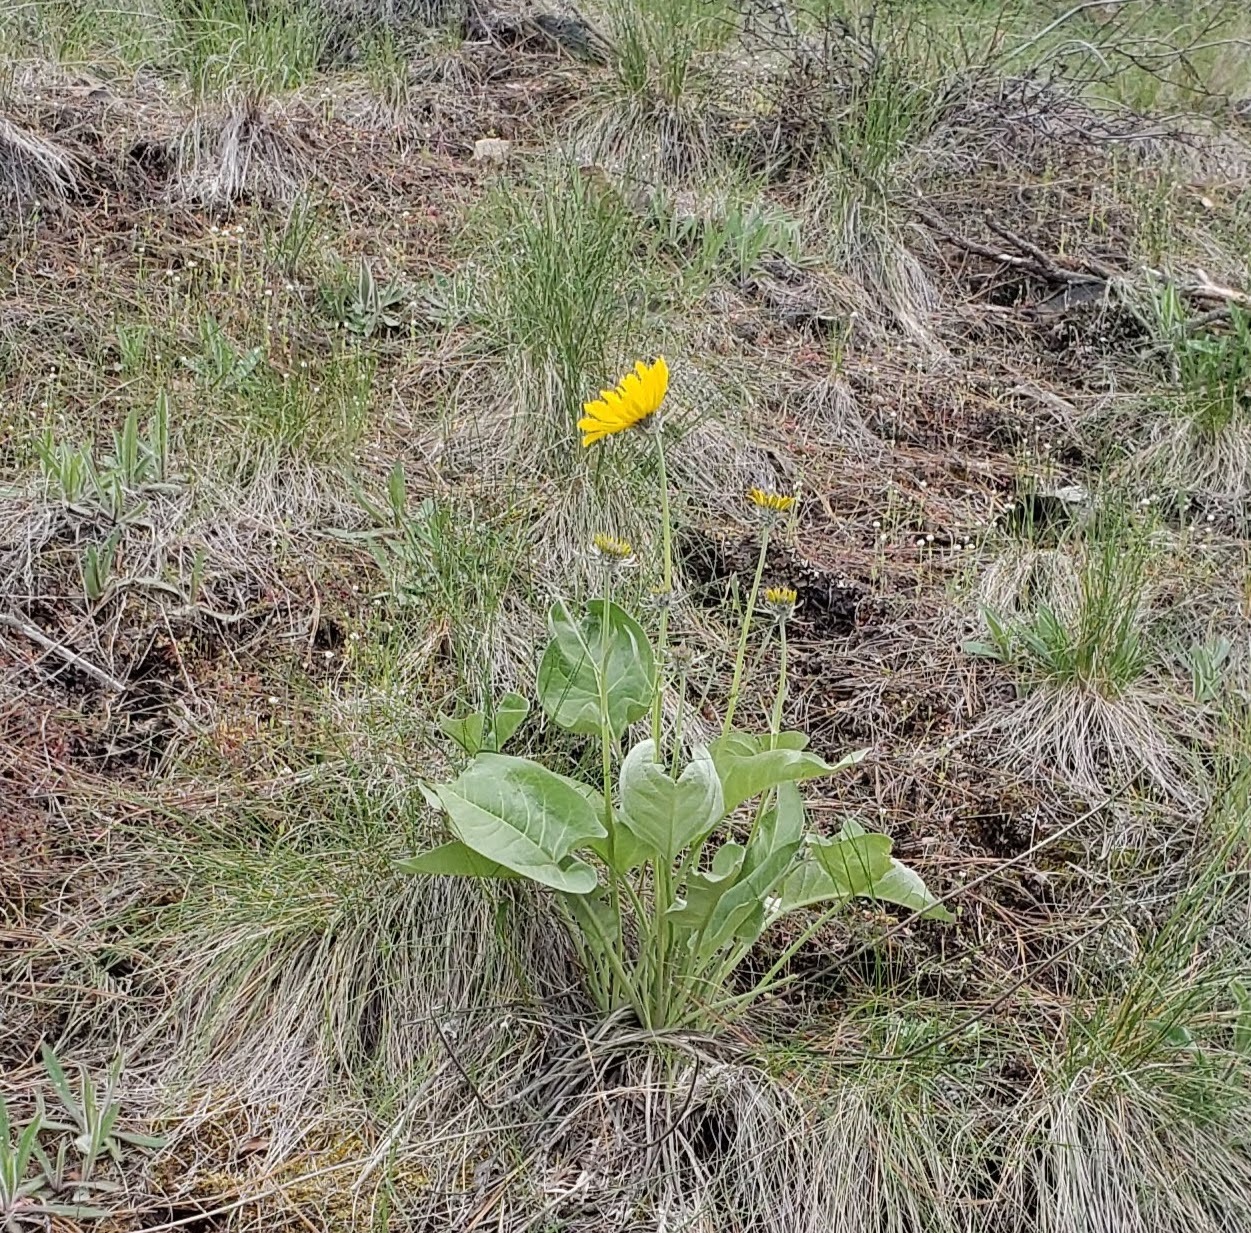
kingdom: Plantae
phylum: Tracheophyta
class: Magnoliopsida
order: Asterales
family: Asteraceae
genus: Wyethia
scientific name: Wyethia sagittata
